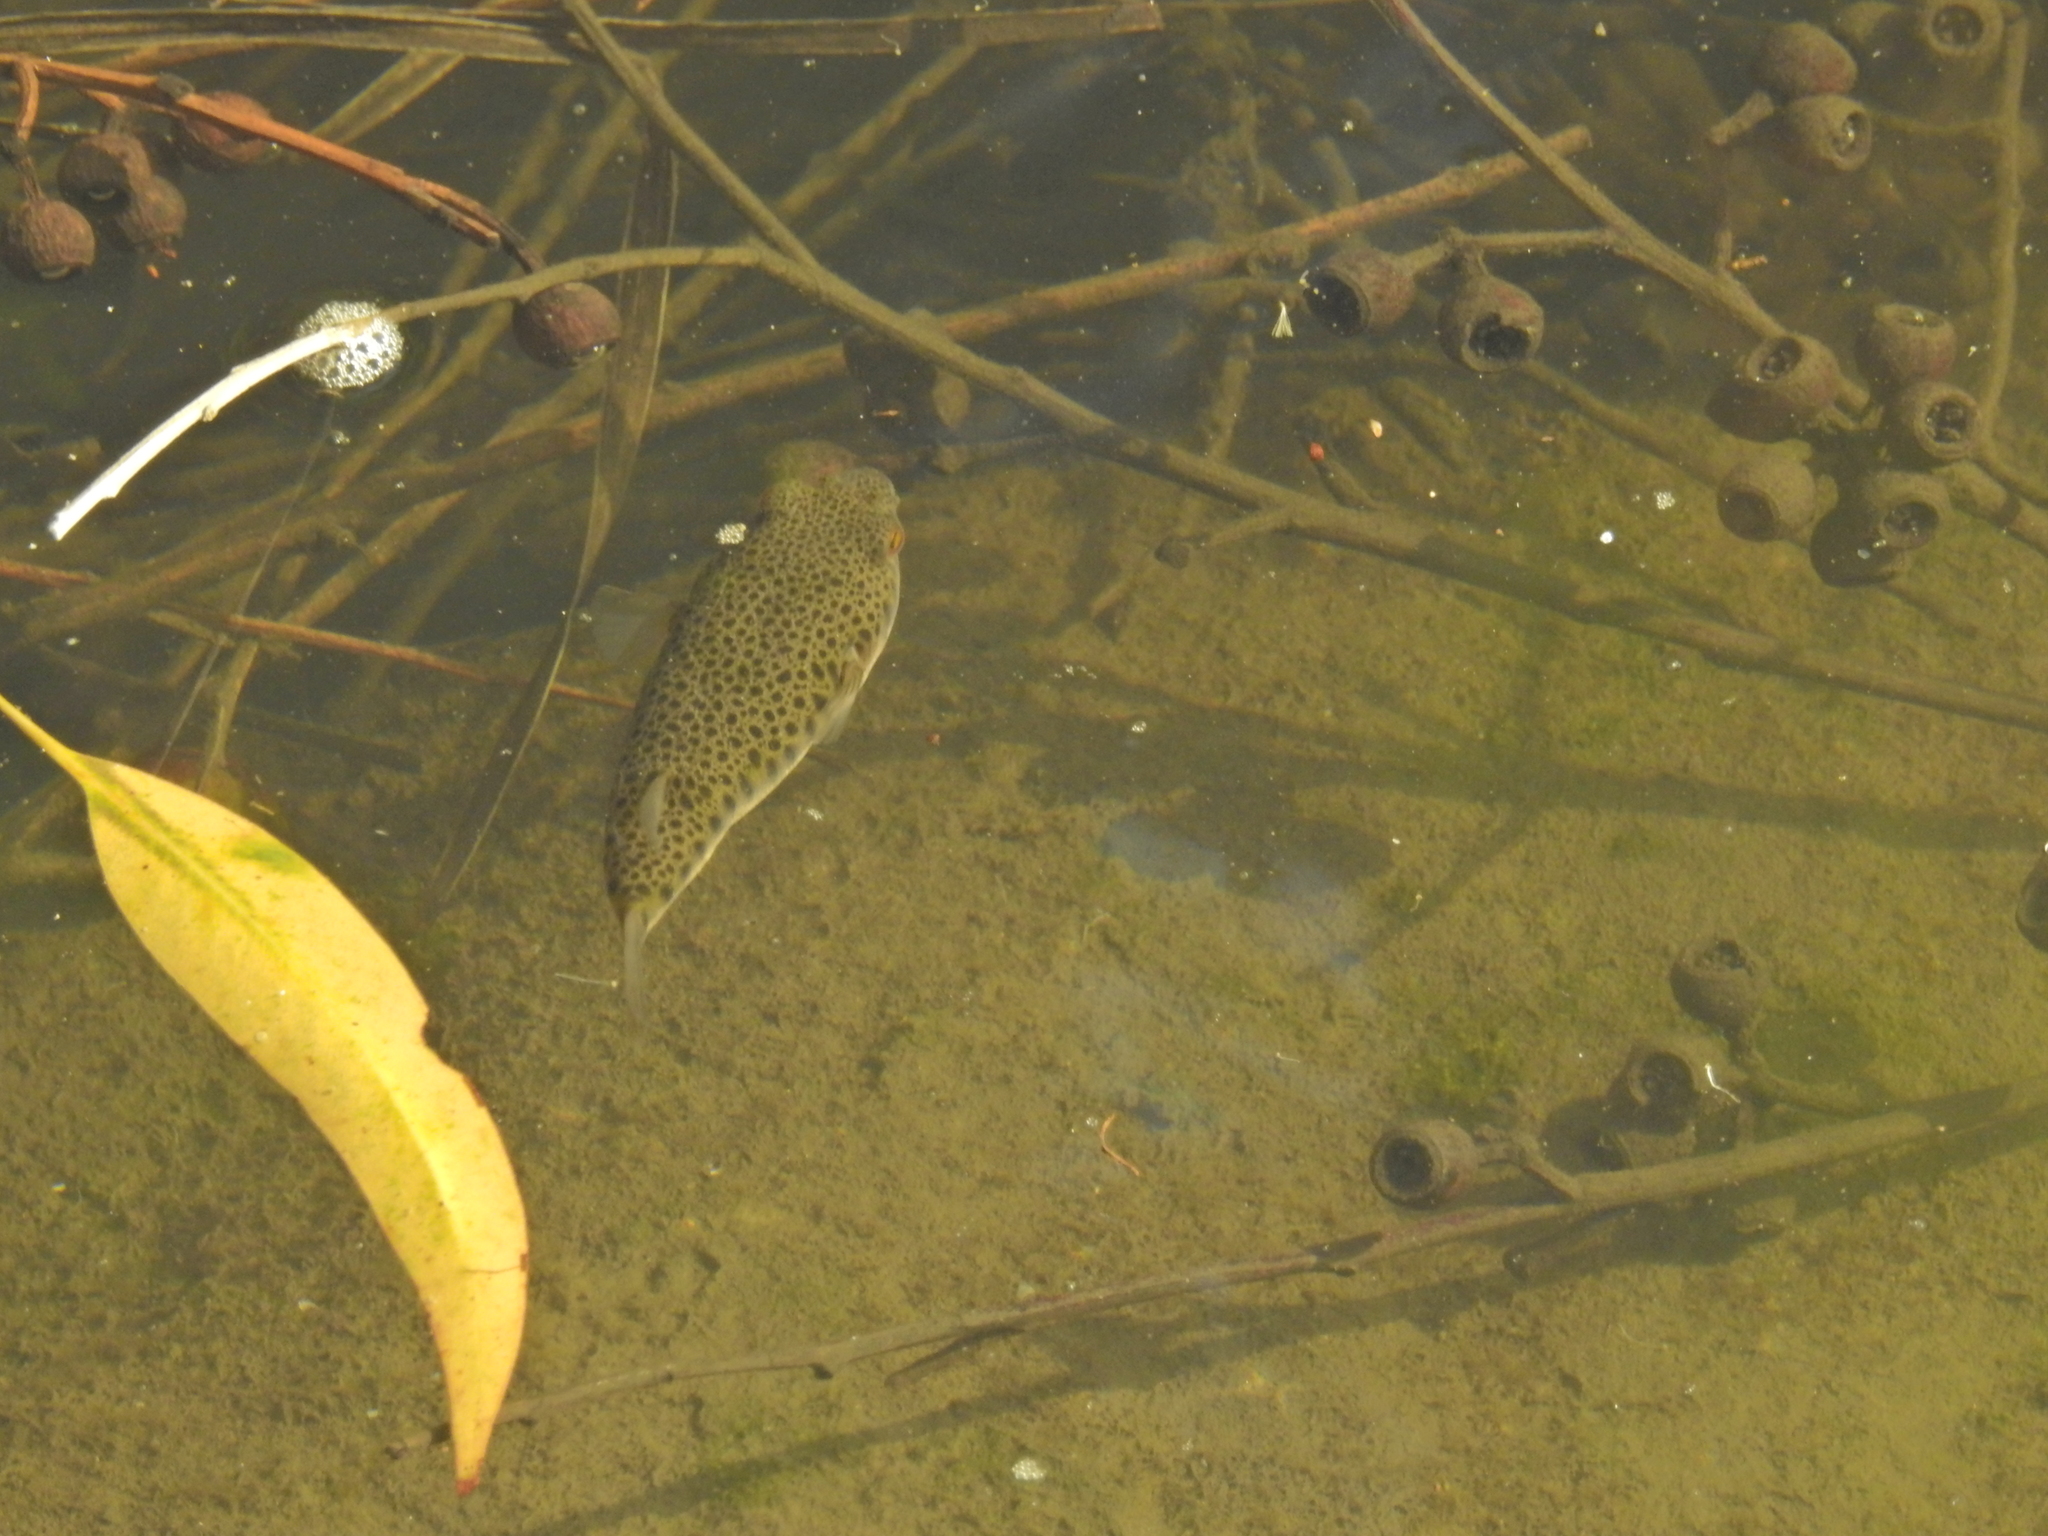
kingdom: Animalia
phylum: Chordata
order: Tetraodontiformes
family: Tetraodontidae
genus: Tetractenos
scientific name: Tetractenos hamiltoni
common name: Common toadfish
